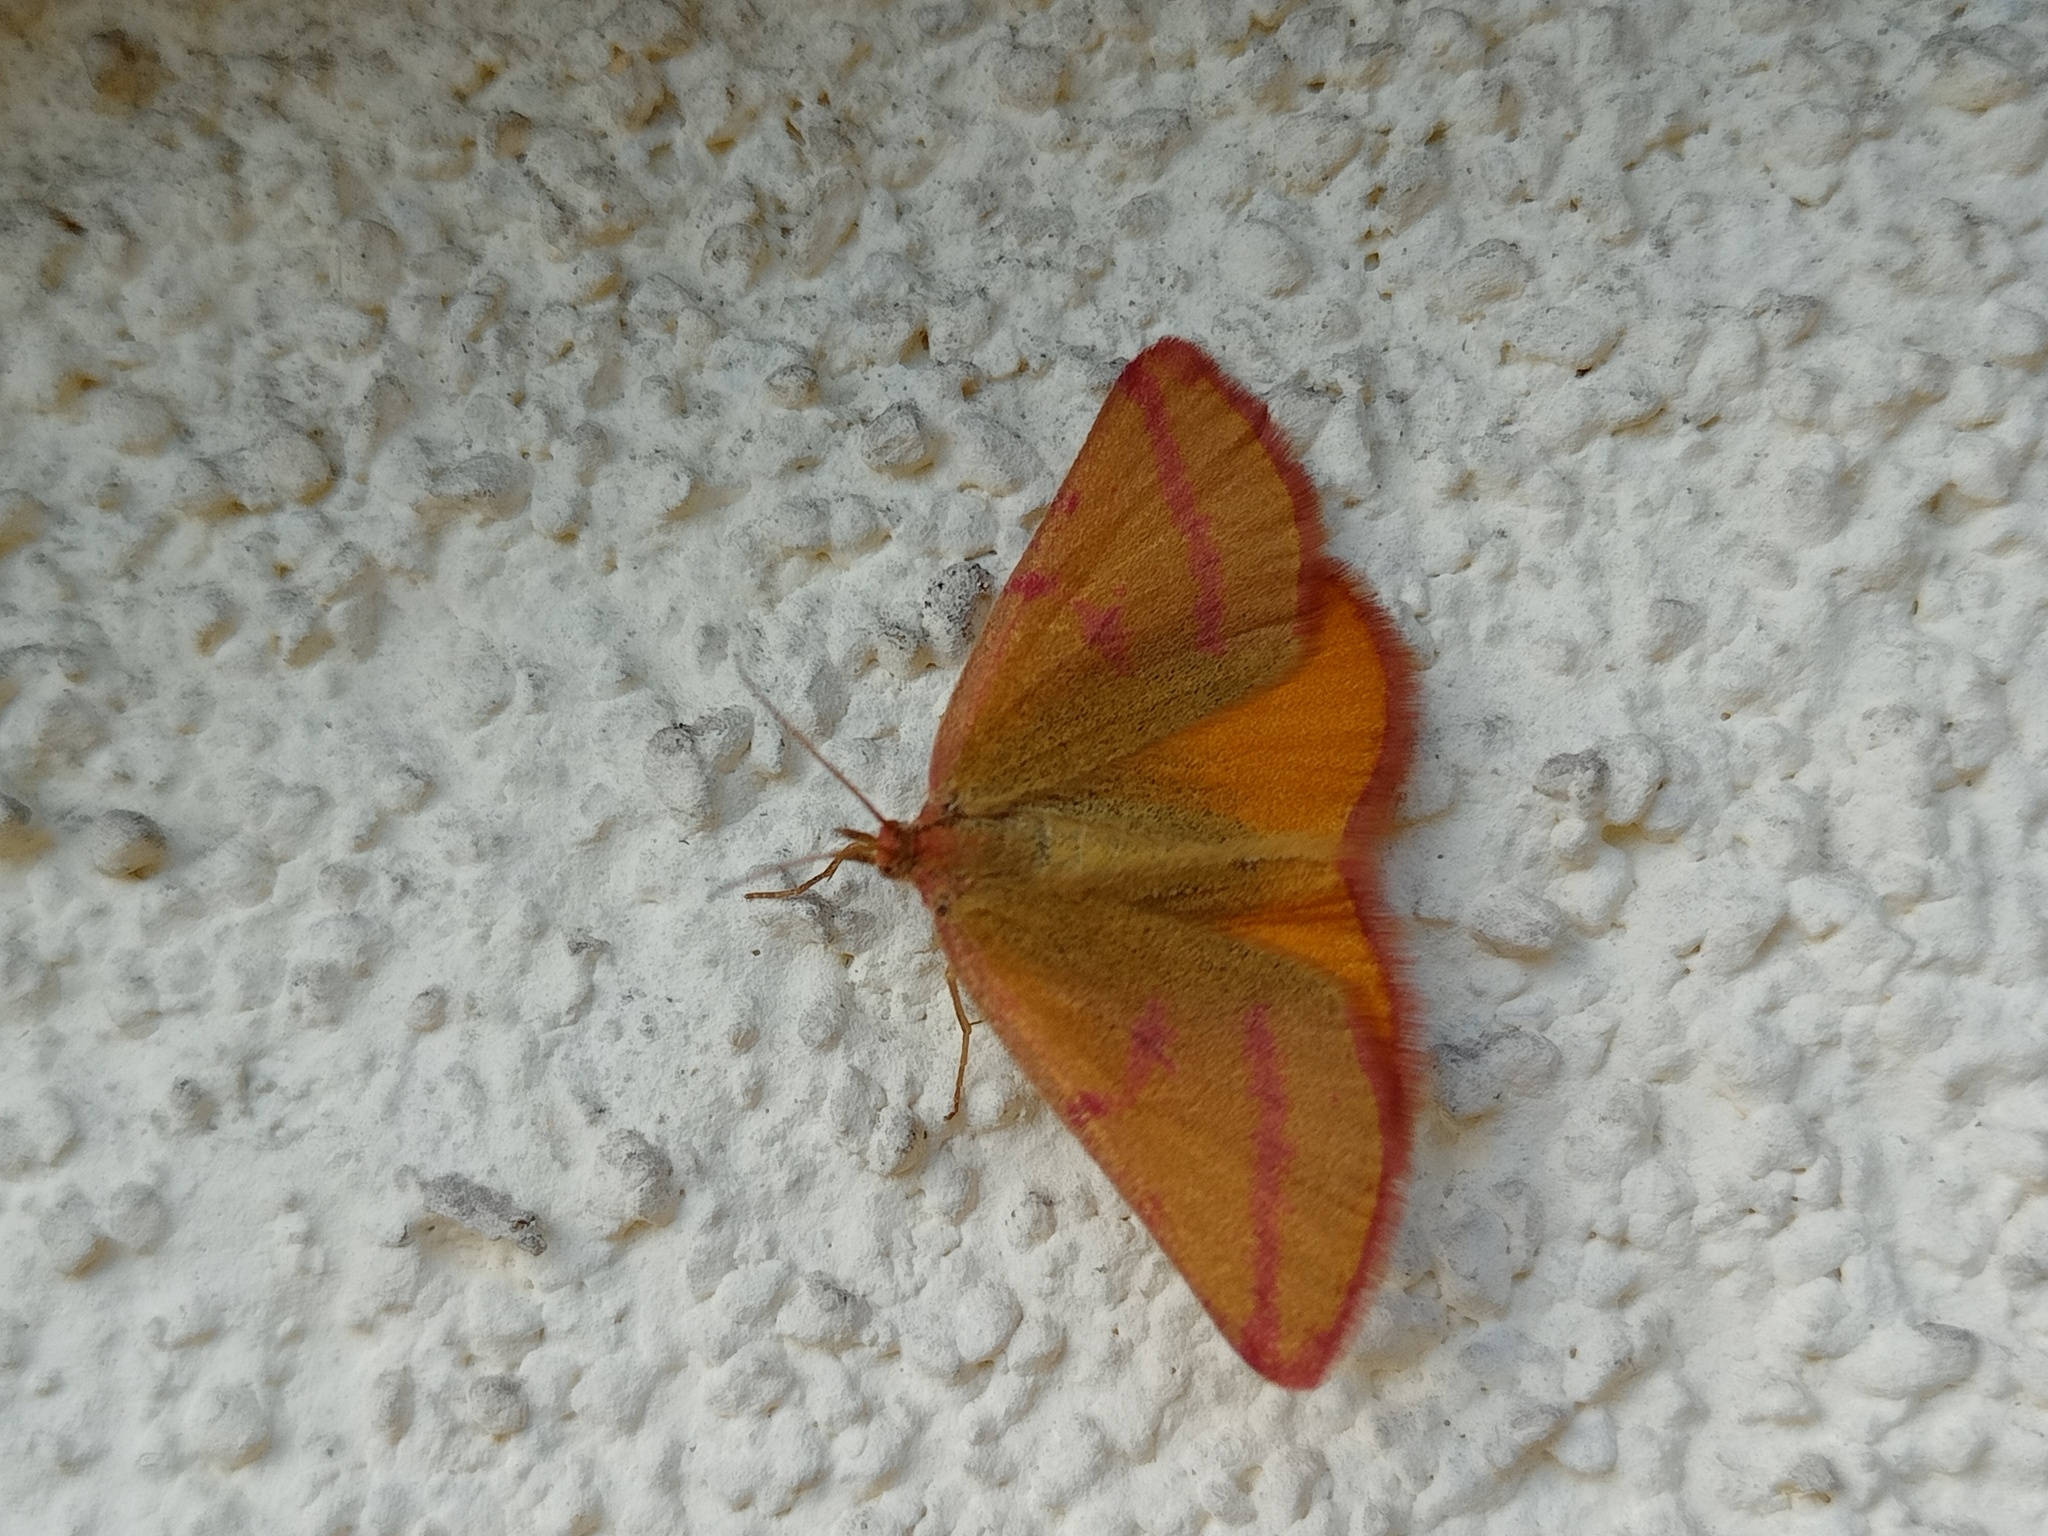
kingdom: Animalia
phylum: Arthropoda
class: Insecta
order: Lepidoptera
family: Geometridae
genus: Lythria
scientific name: Lythria purpuraria
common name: Purple-barred yellow
